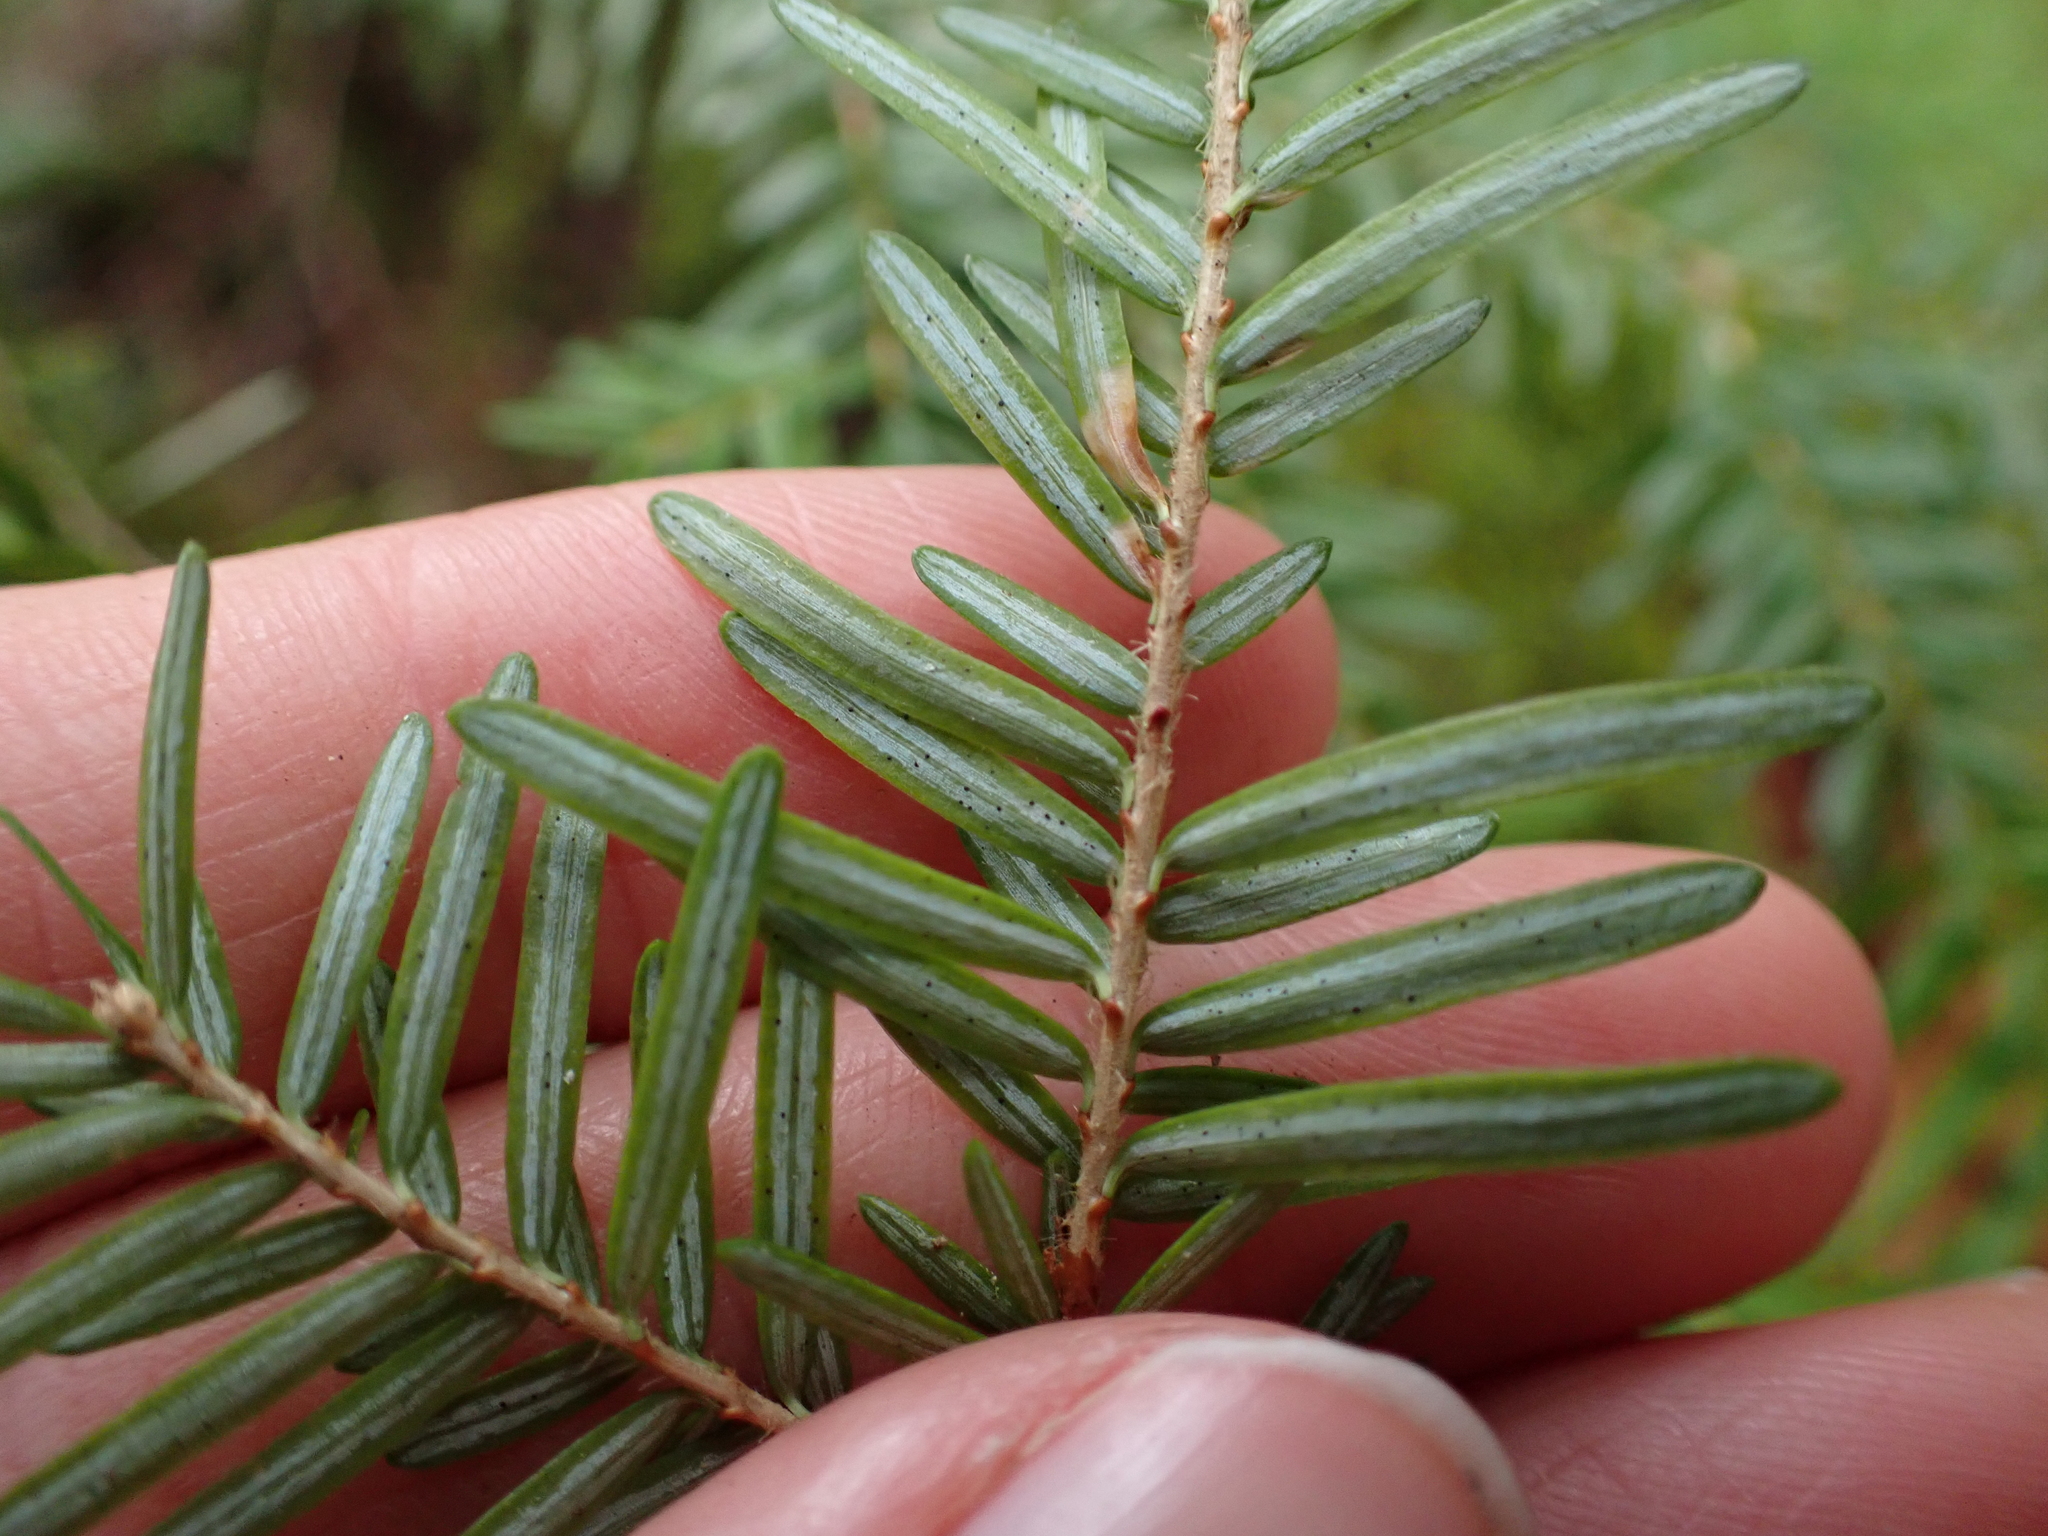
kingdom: Plantae
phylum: Tracheophyta
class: Pinopsida
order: Pinales
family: Pinaceae
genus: Tsuga
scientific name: Tsuga heterophylla
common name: Western hemlock
